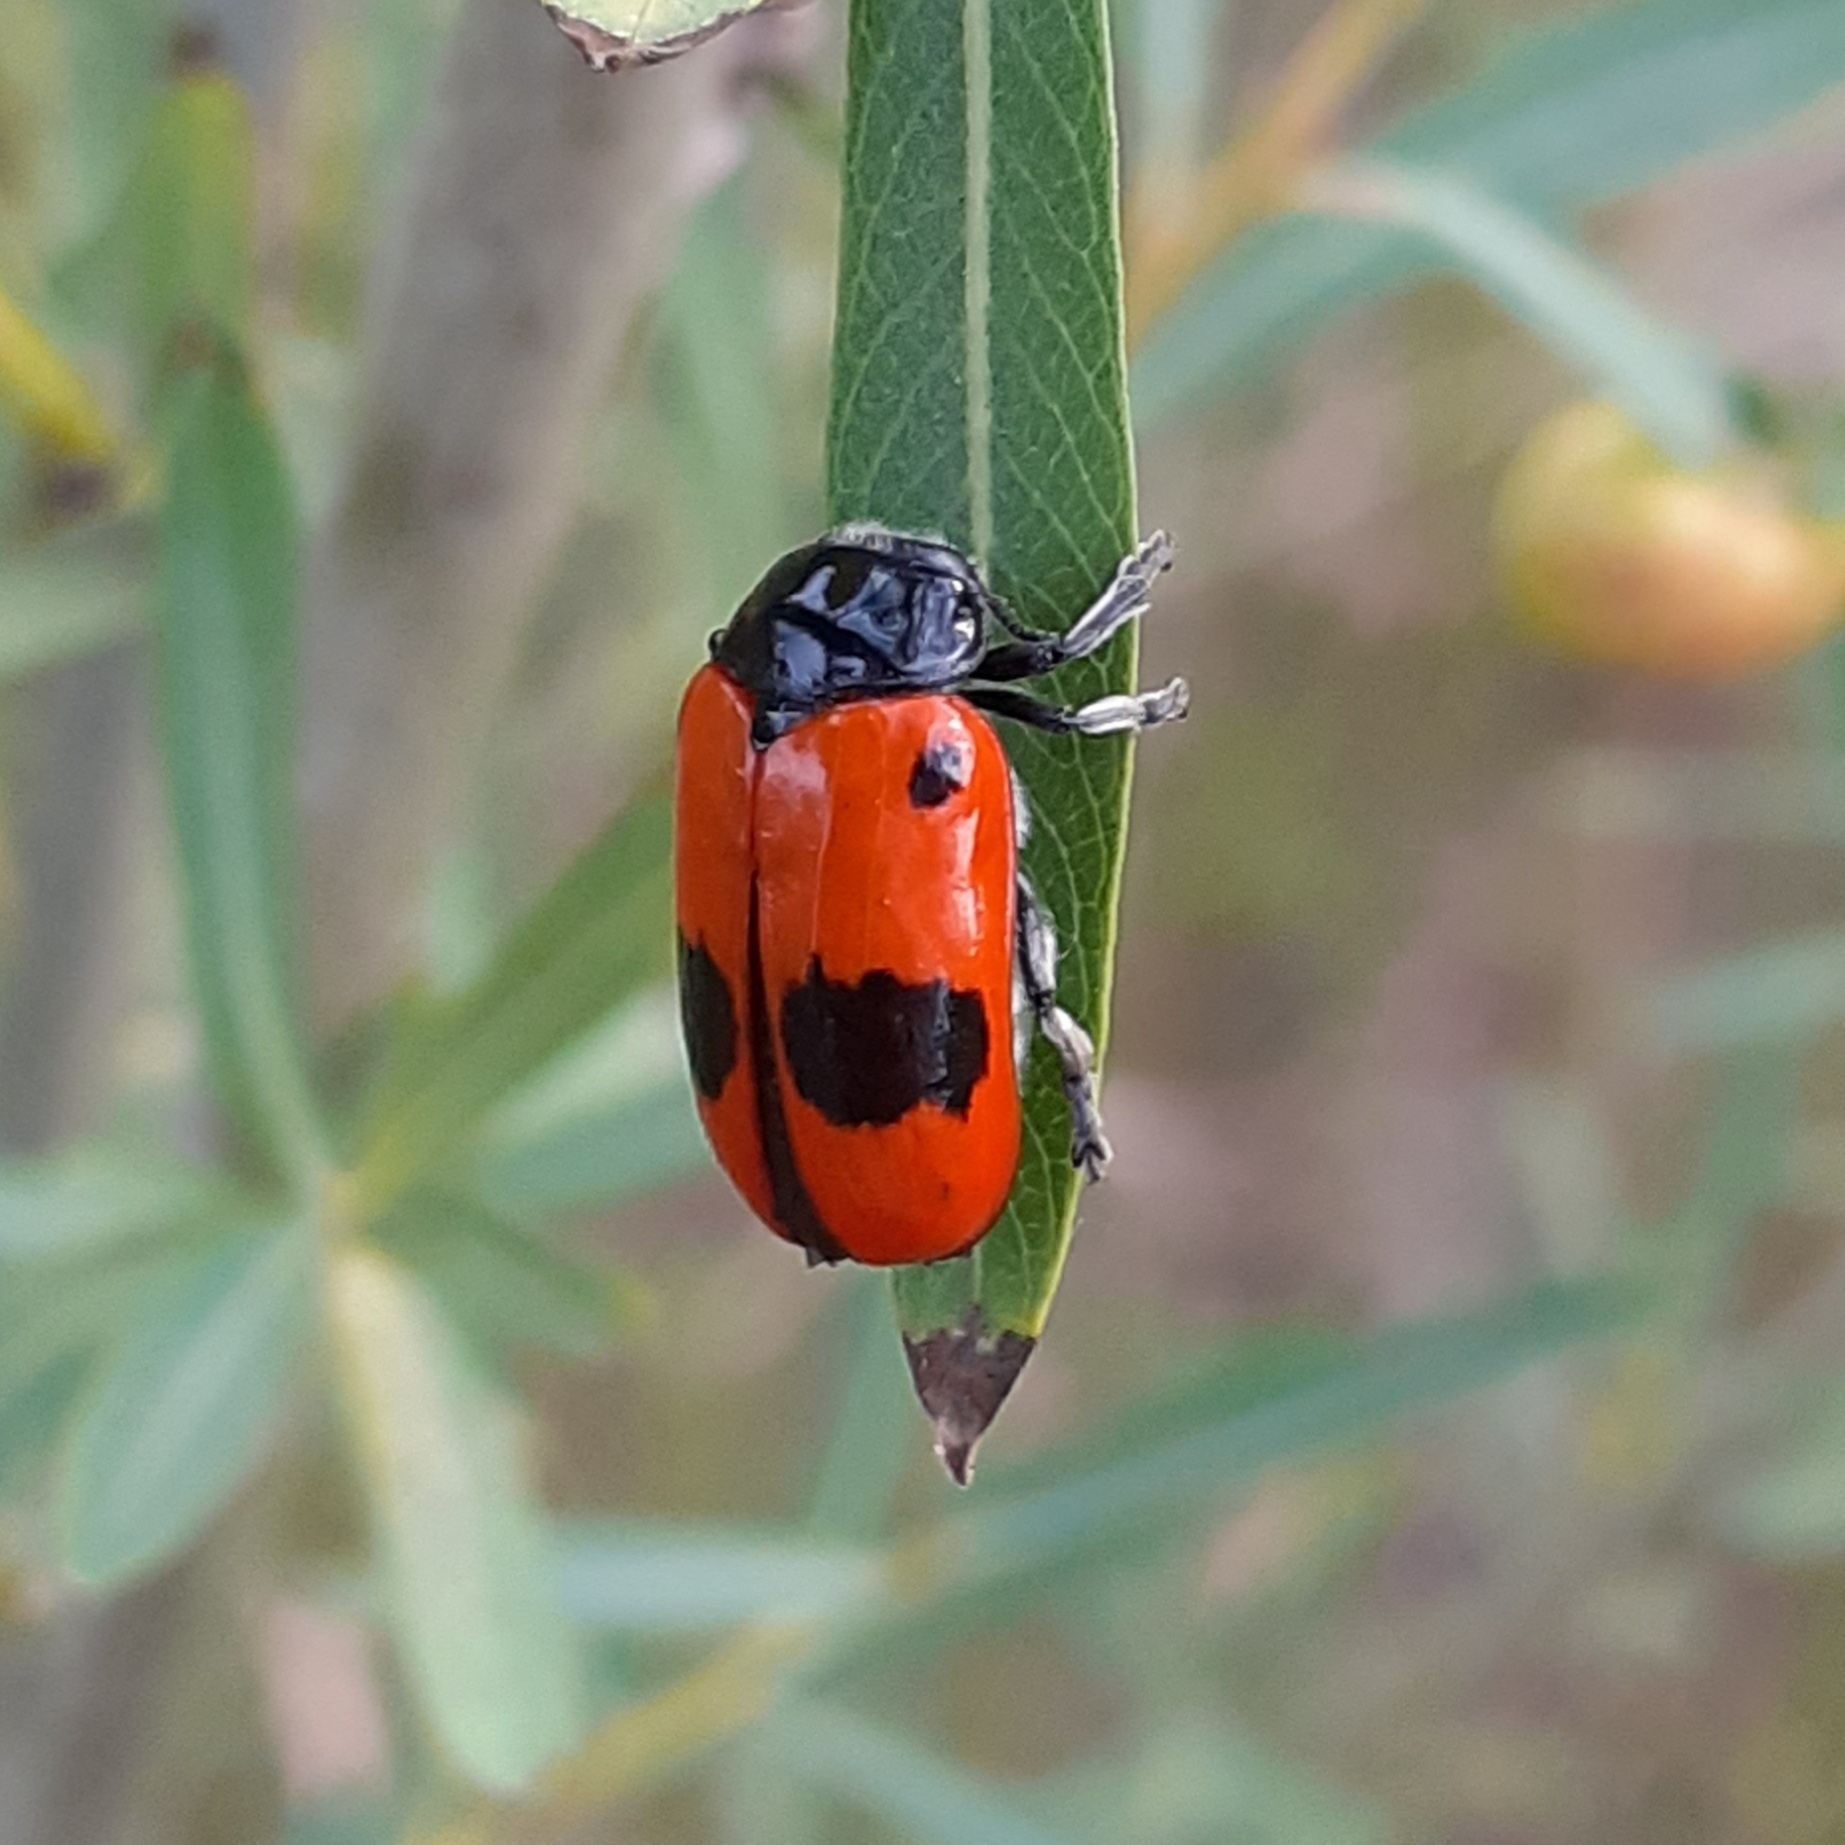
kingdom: Animalia
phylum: Arthropoda
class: Insecta
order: Coleoptera
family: Chrysomelidae
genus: Clytra
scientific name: Clytra laeviuscula
